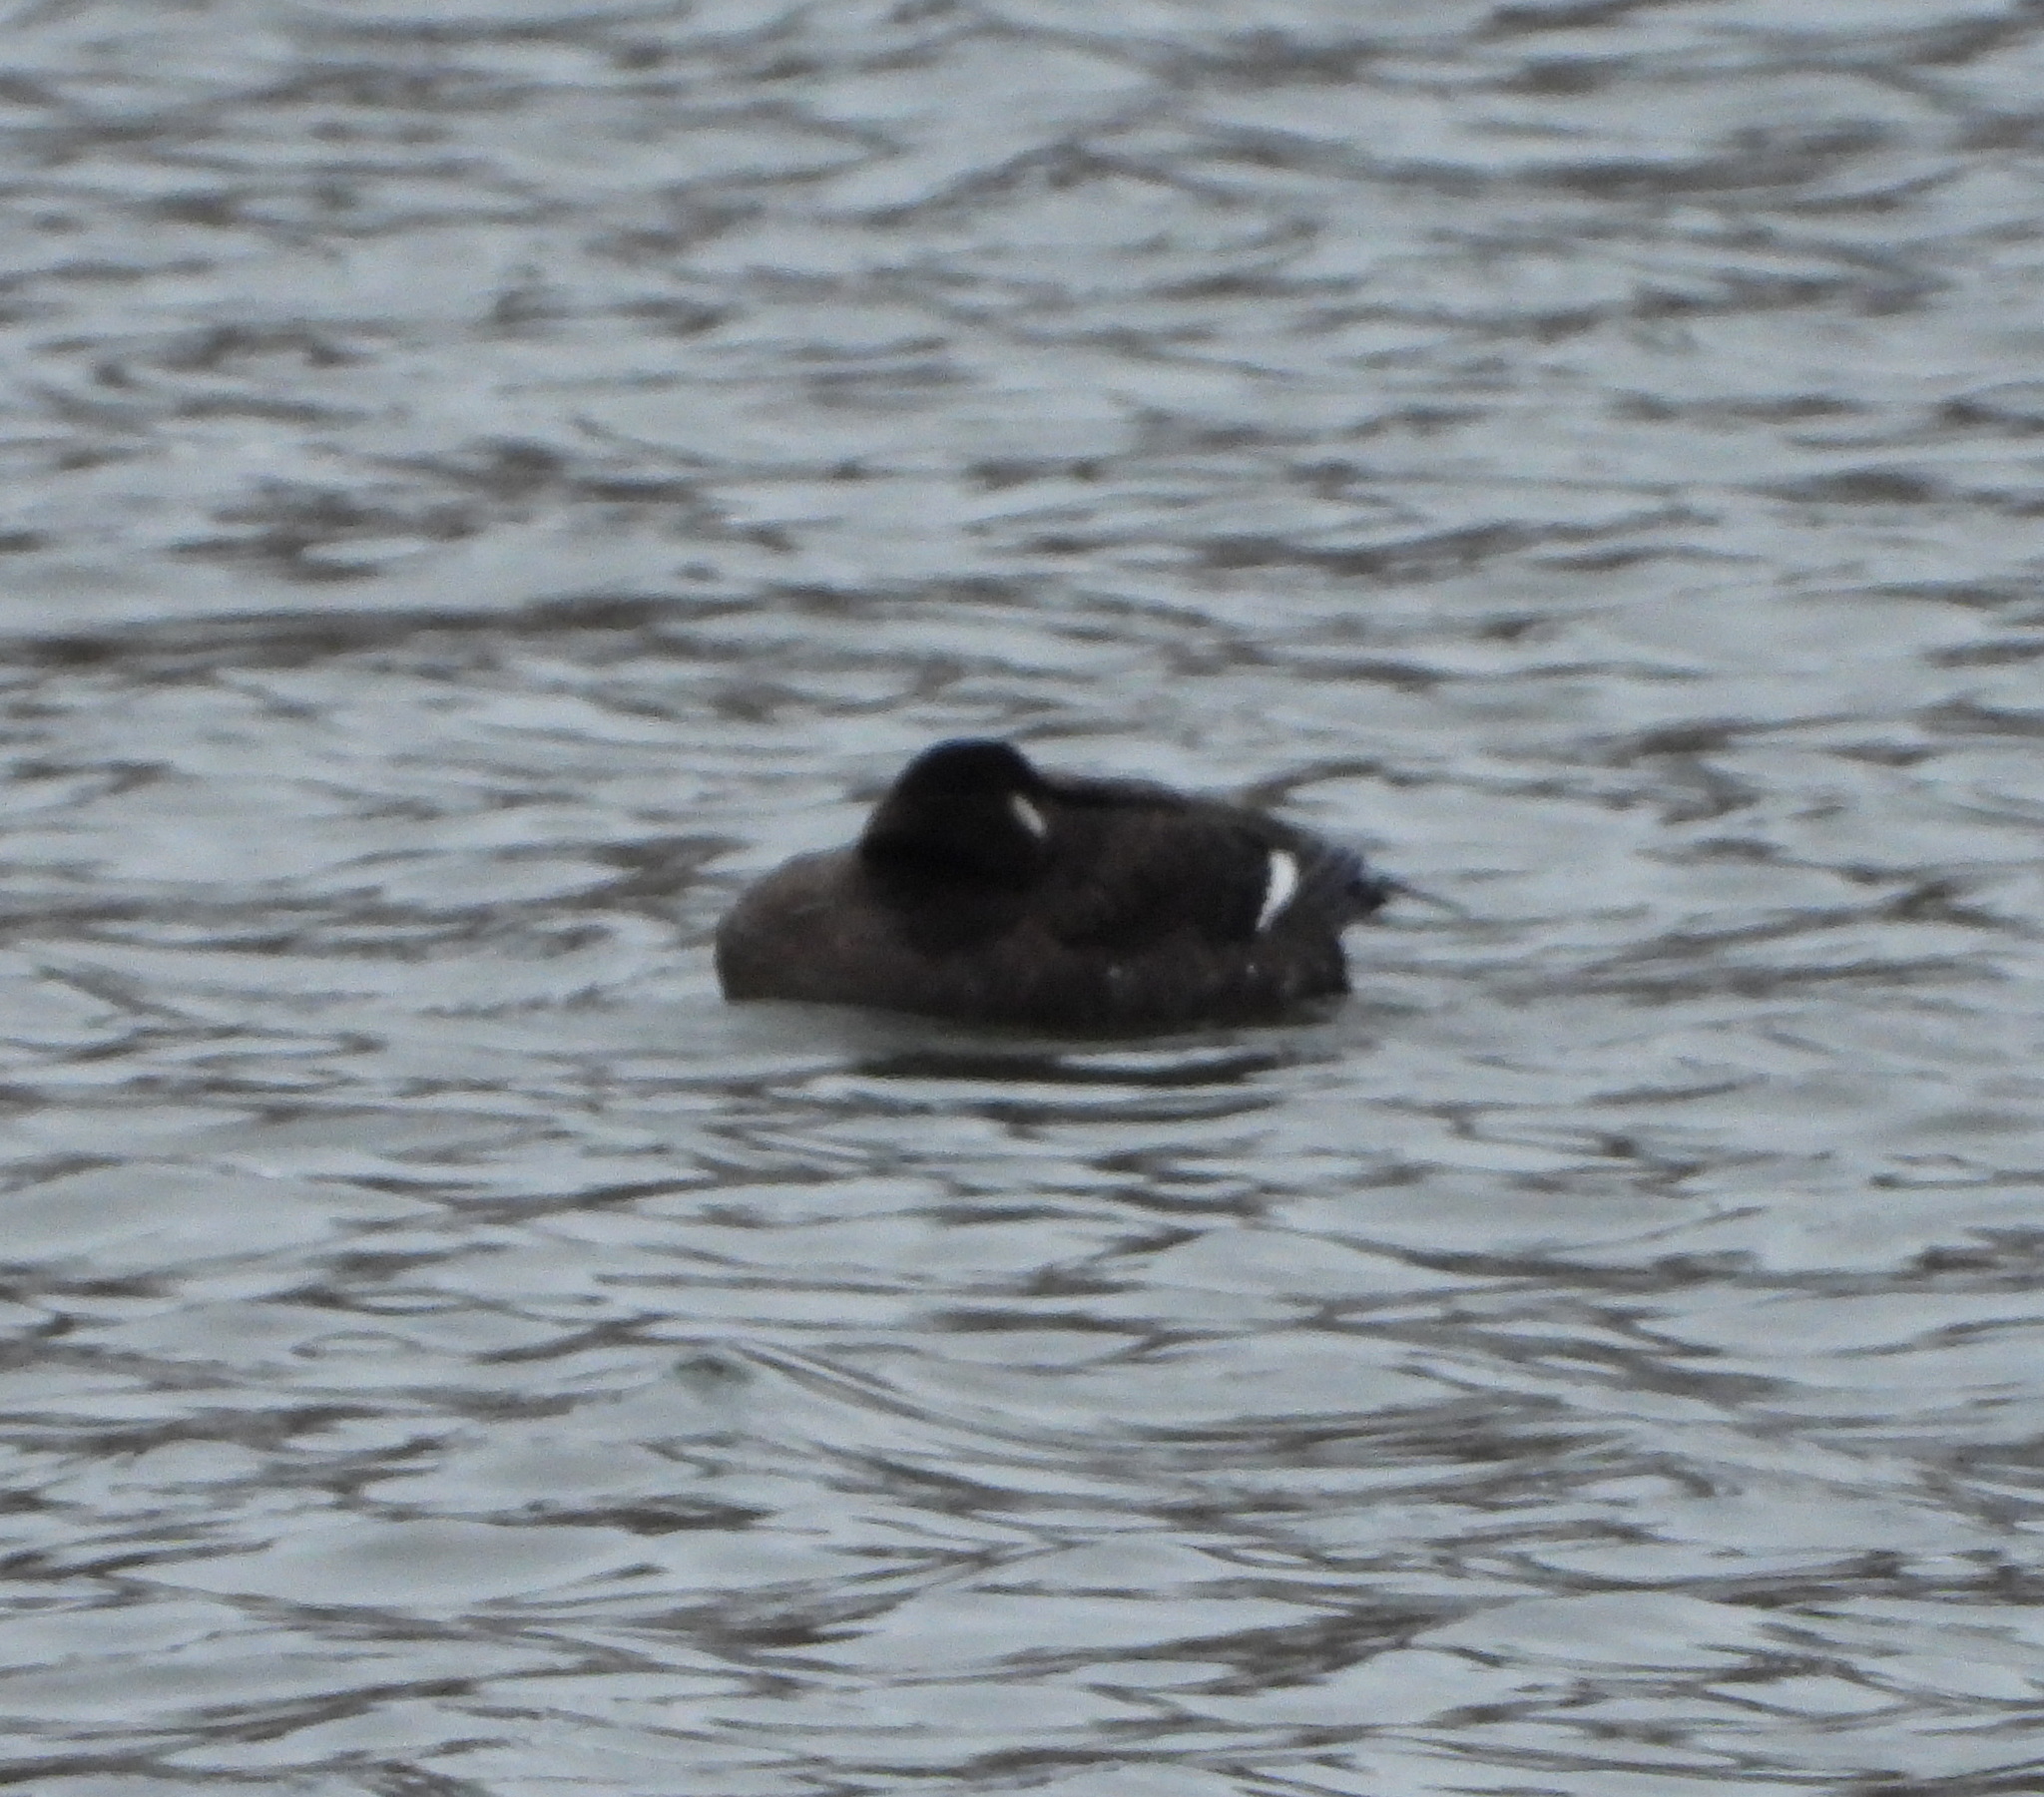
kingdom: Animalia
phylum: Chordata
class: Aves
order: Anseriformes
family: Anatidae
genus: Melanitta
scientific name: Melanitta fusca
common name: Velvet scoter
